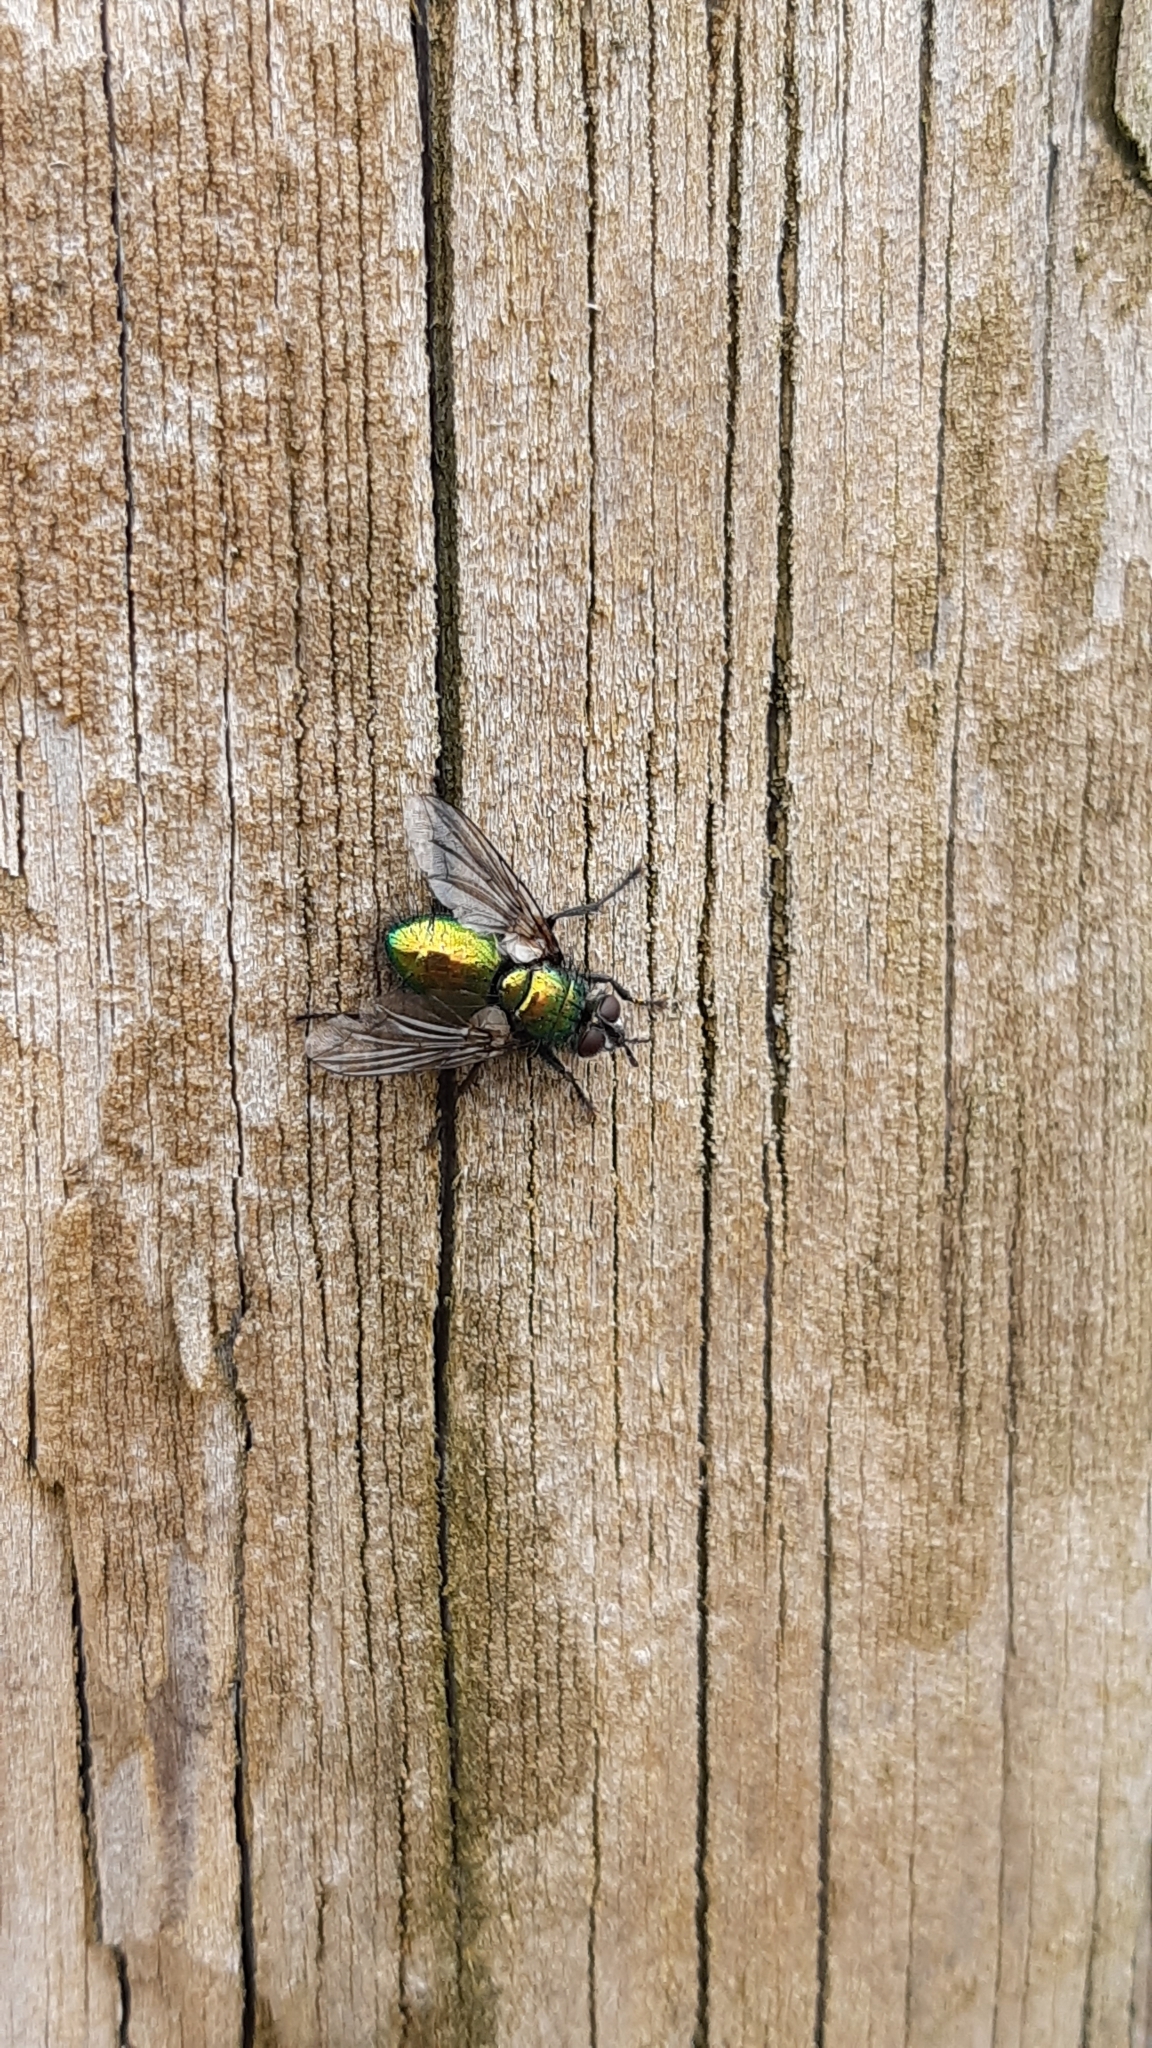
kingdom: Animalia
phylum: Arthropoda
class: Insecta
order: Diptera
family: Tachinidae
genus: Gymnocheta
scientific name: Gymnocheta viridis
